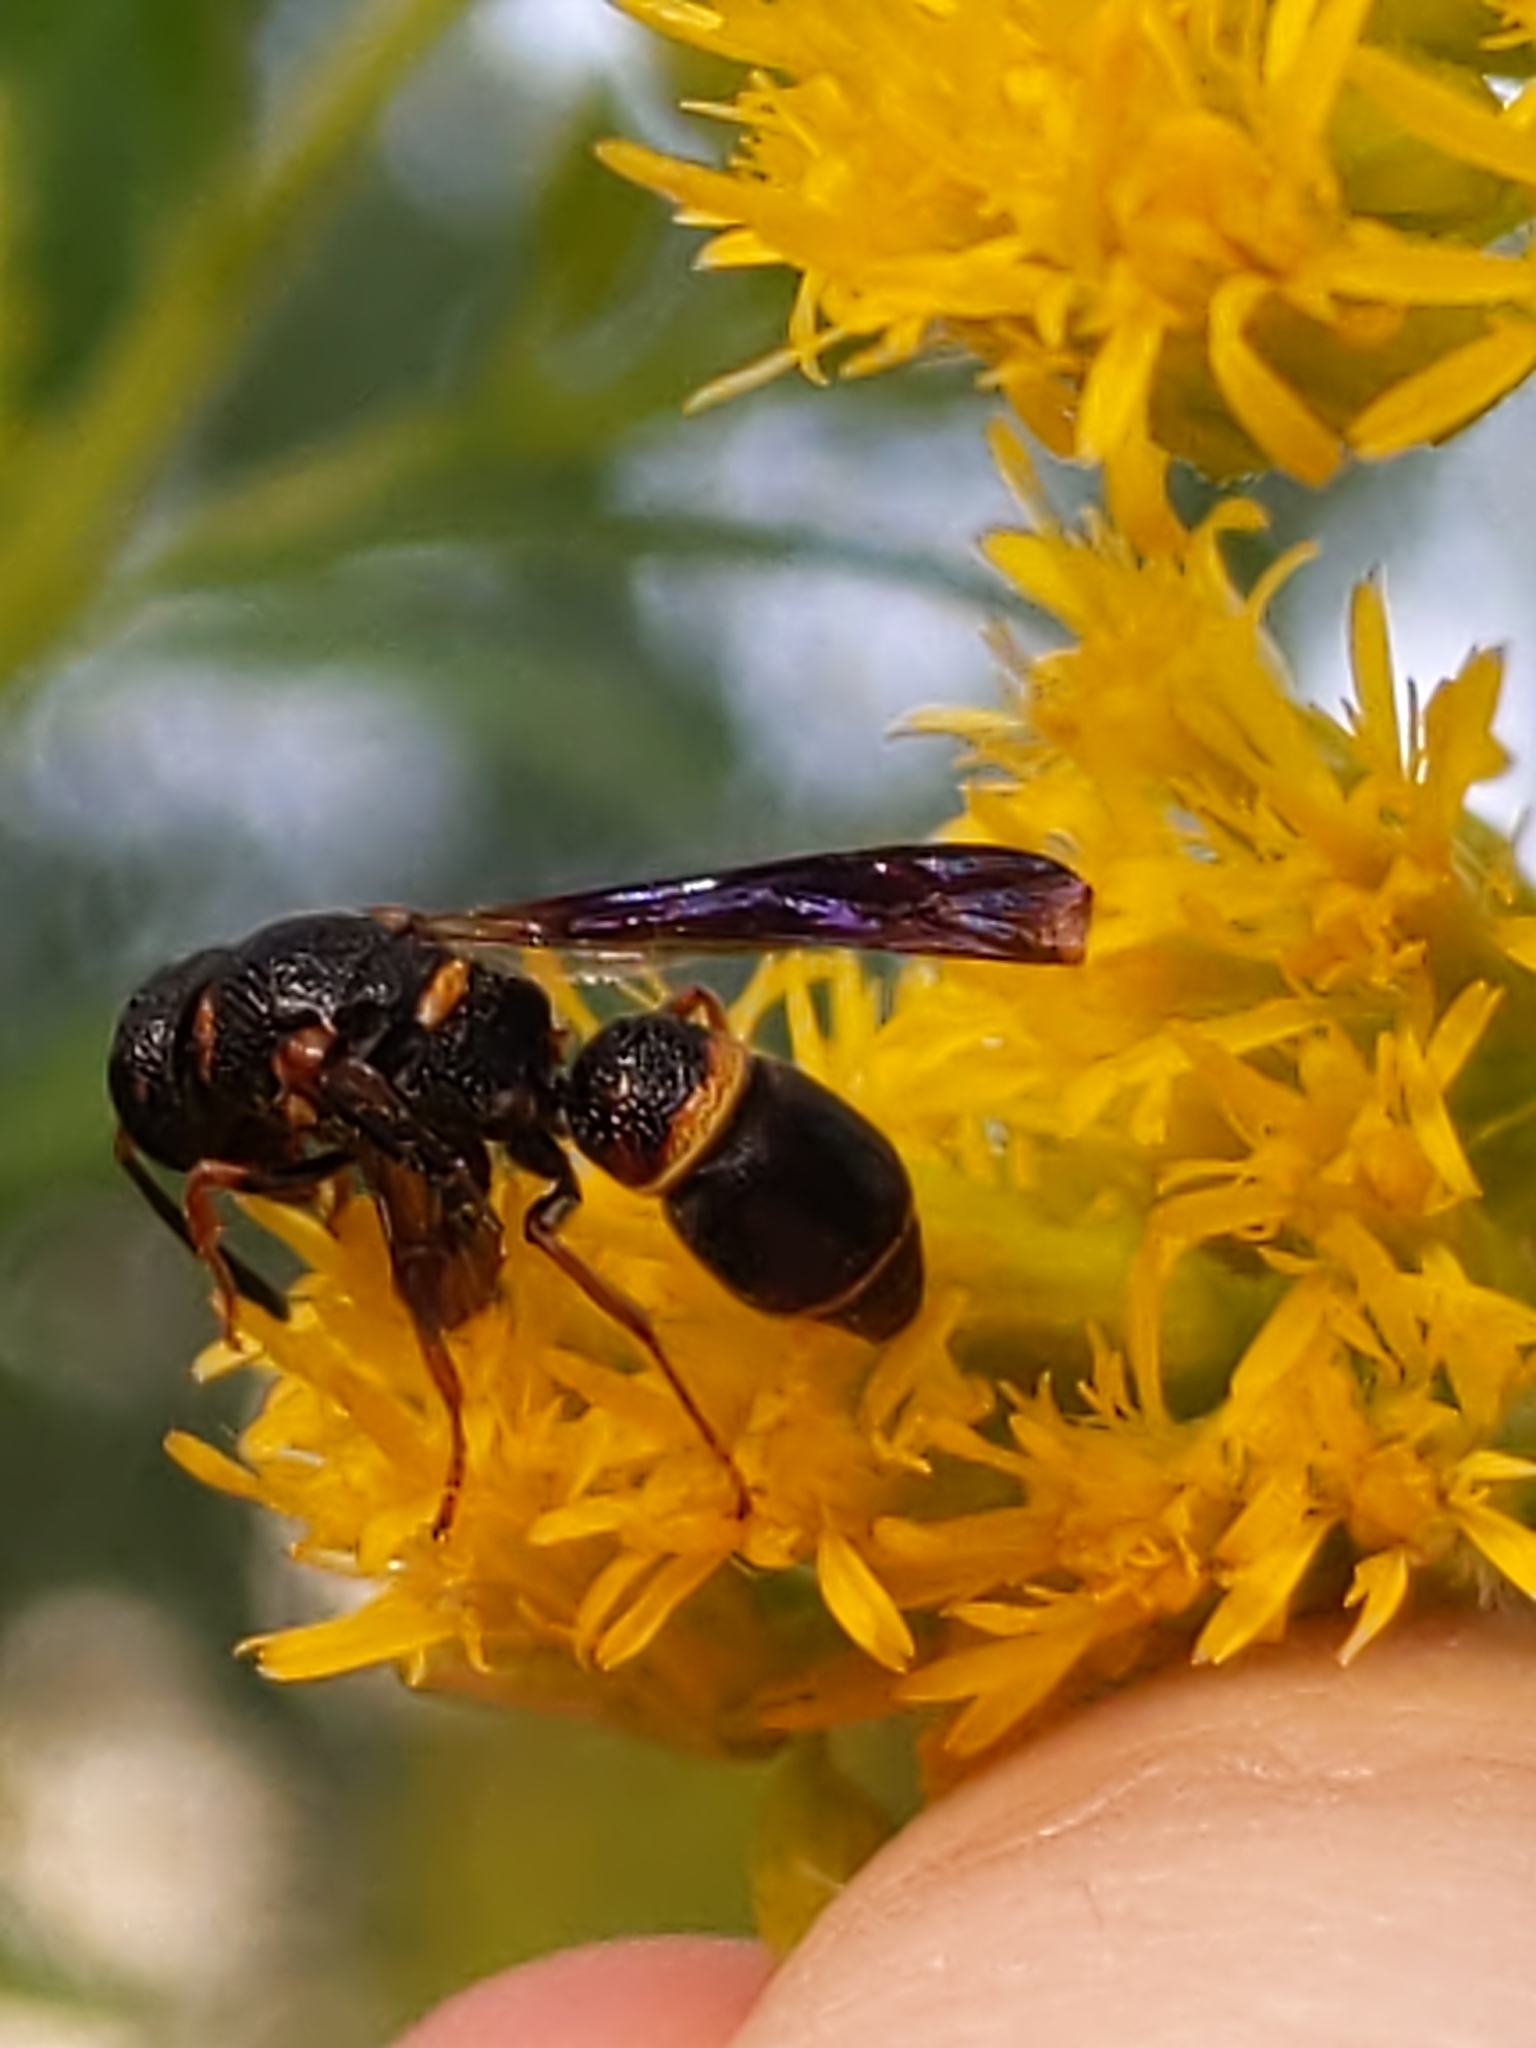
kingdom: Animalia
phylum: Arthropoda
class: Insecta
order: Hymenoptera
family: Eumenidae
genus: Parancistrocerus
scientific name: Parancistrocerus histrio
